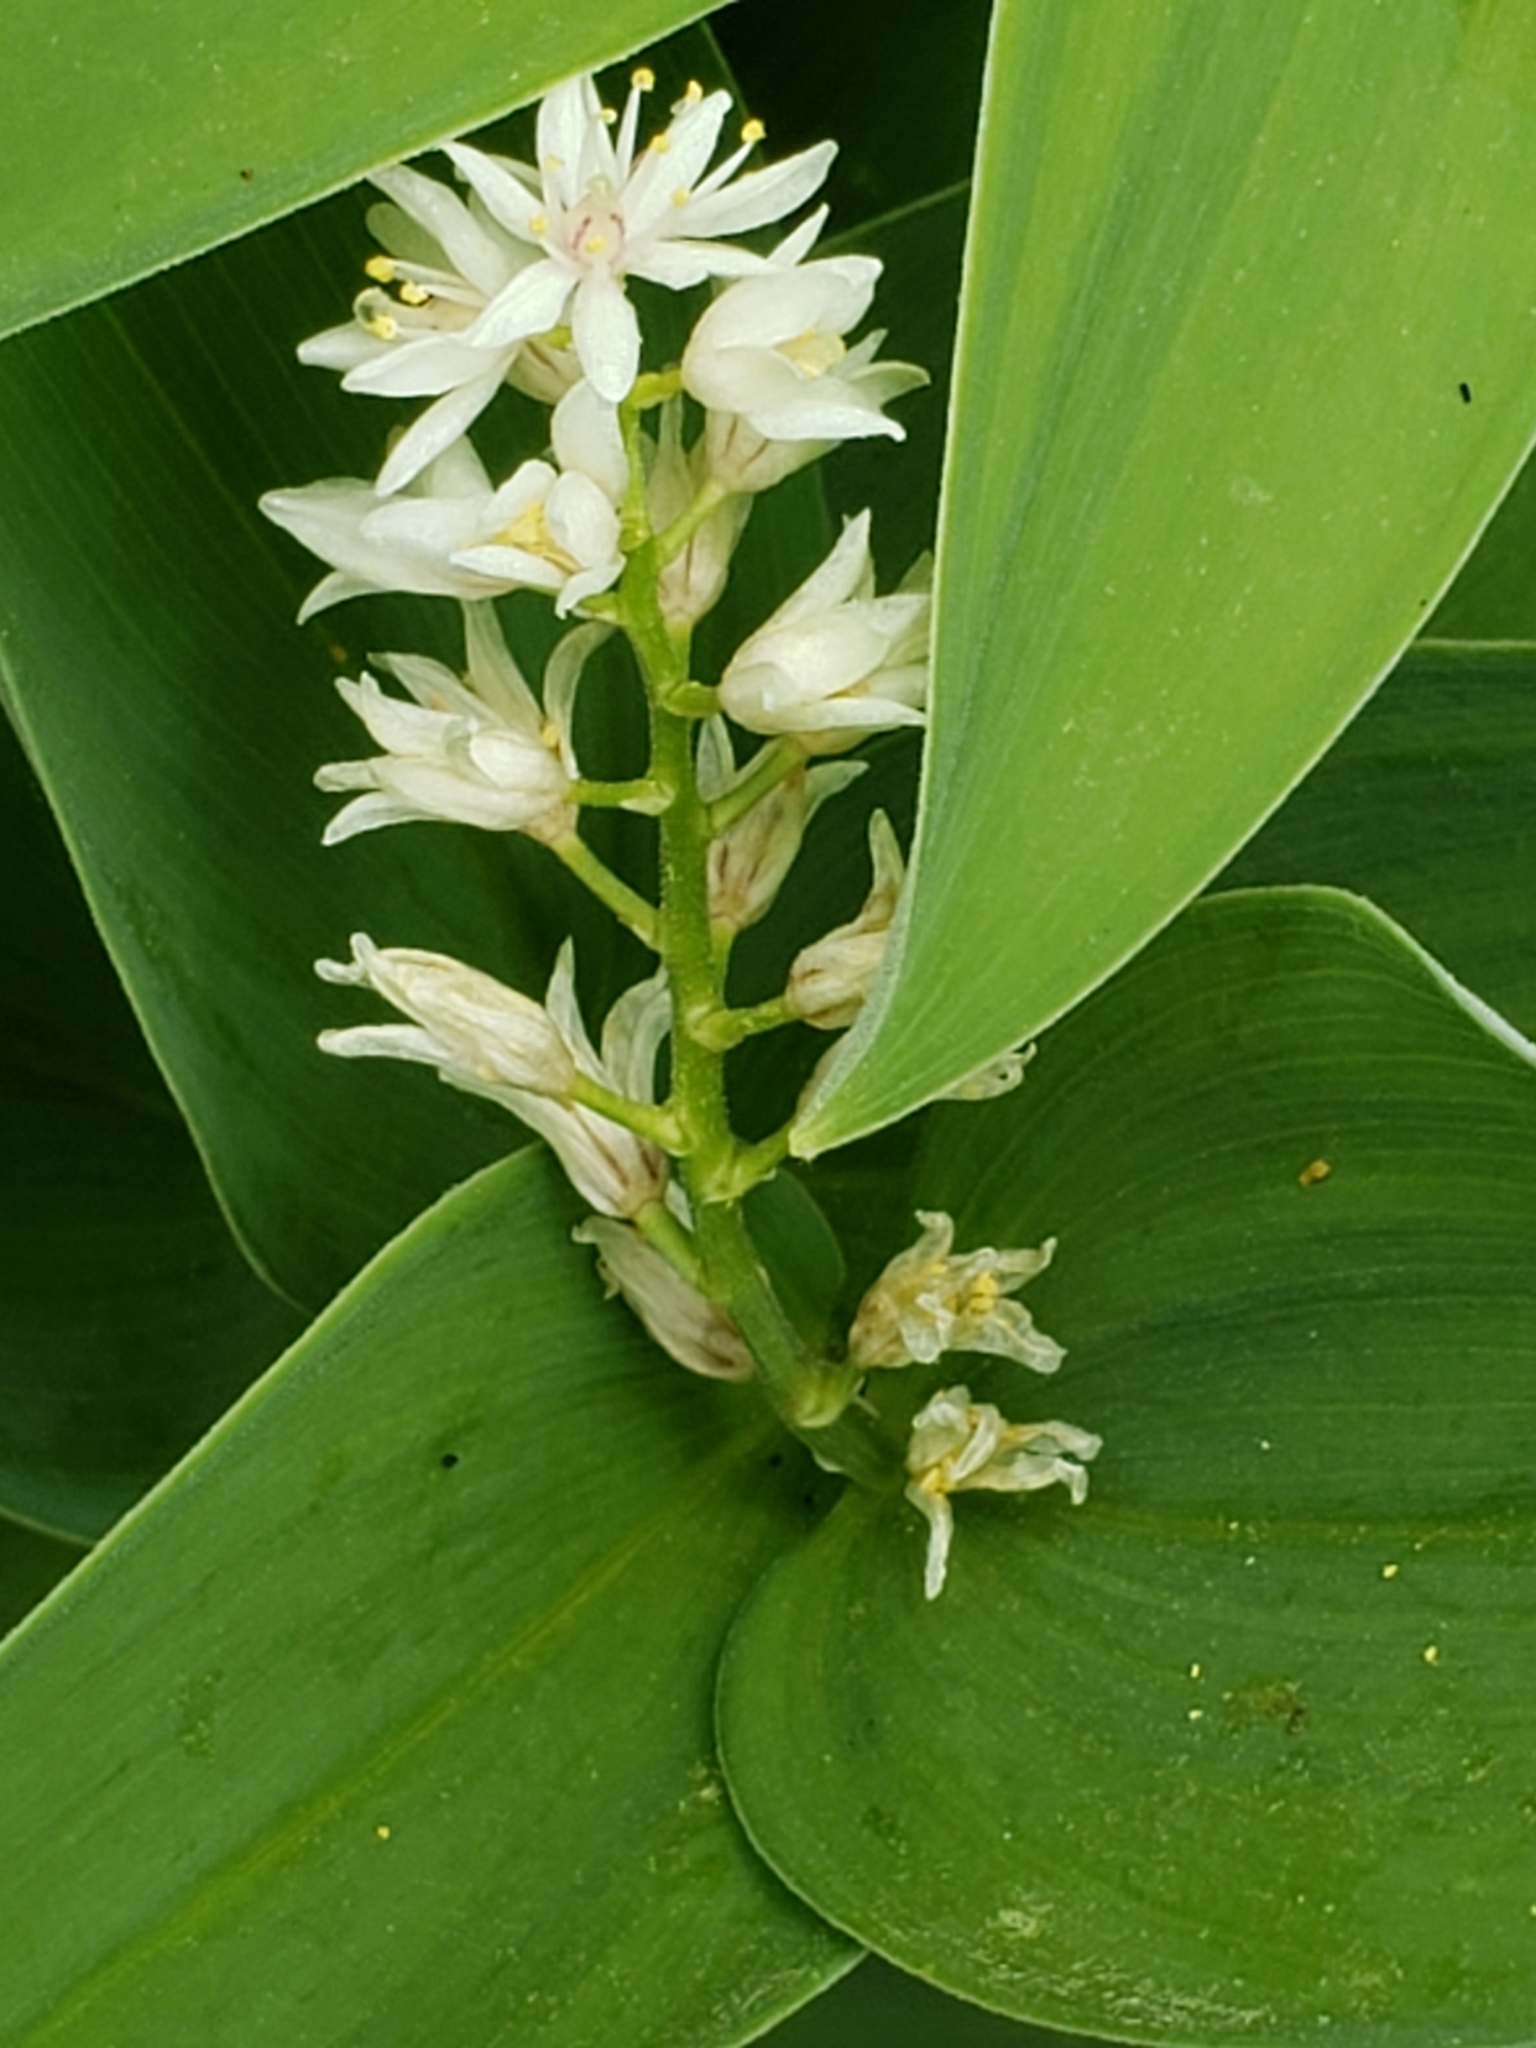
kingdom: Plantae
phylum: Tracheophyta
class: Liliopsida
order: Asparagales
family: Asparagaceae
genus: Maianthemum
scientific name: Maianthemum stellatum
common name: Little false solomon's seal
